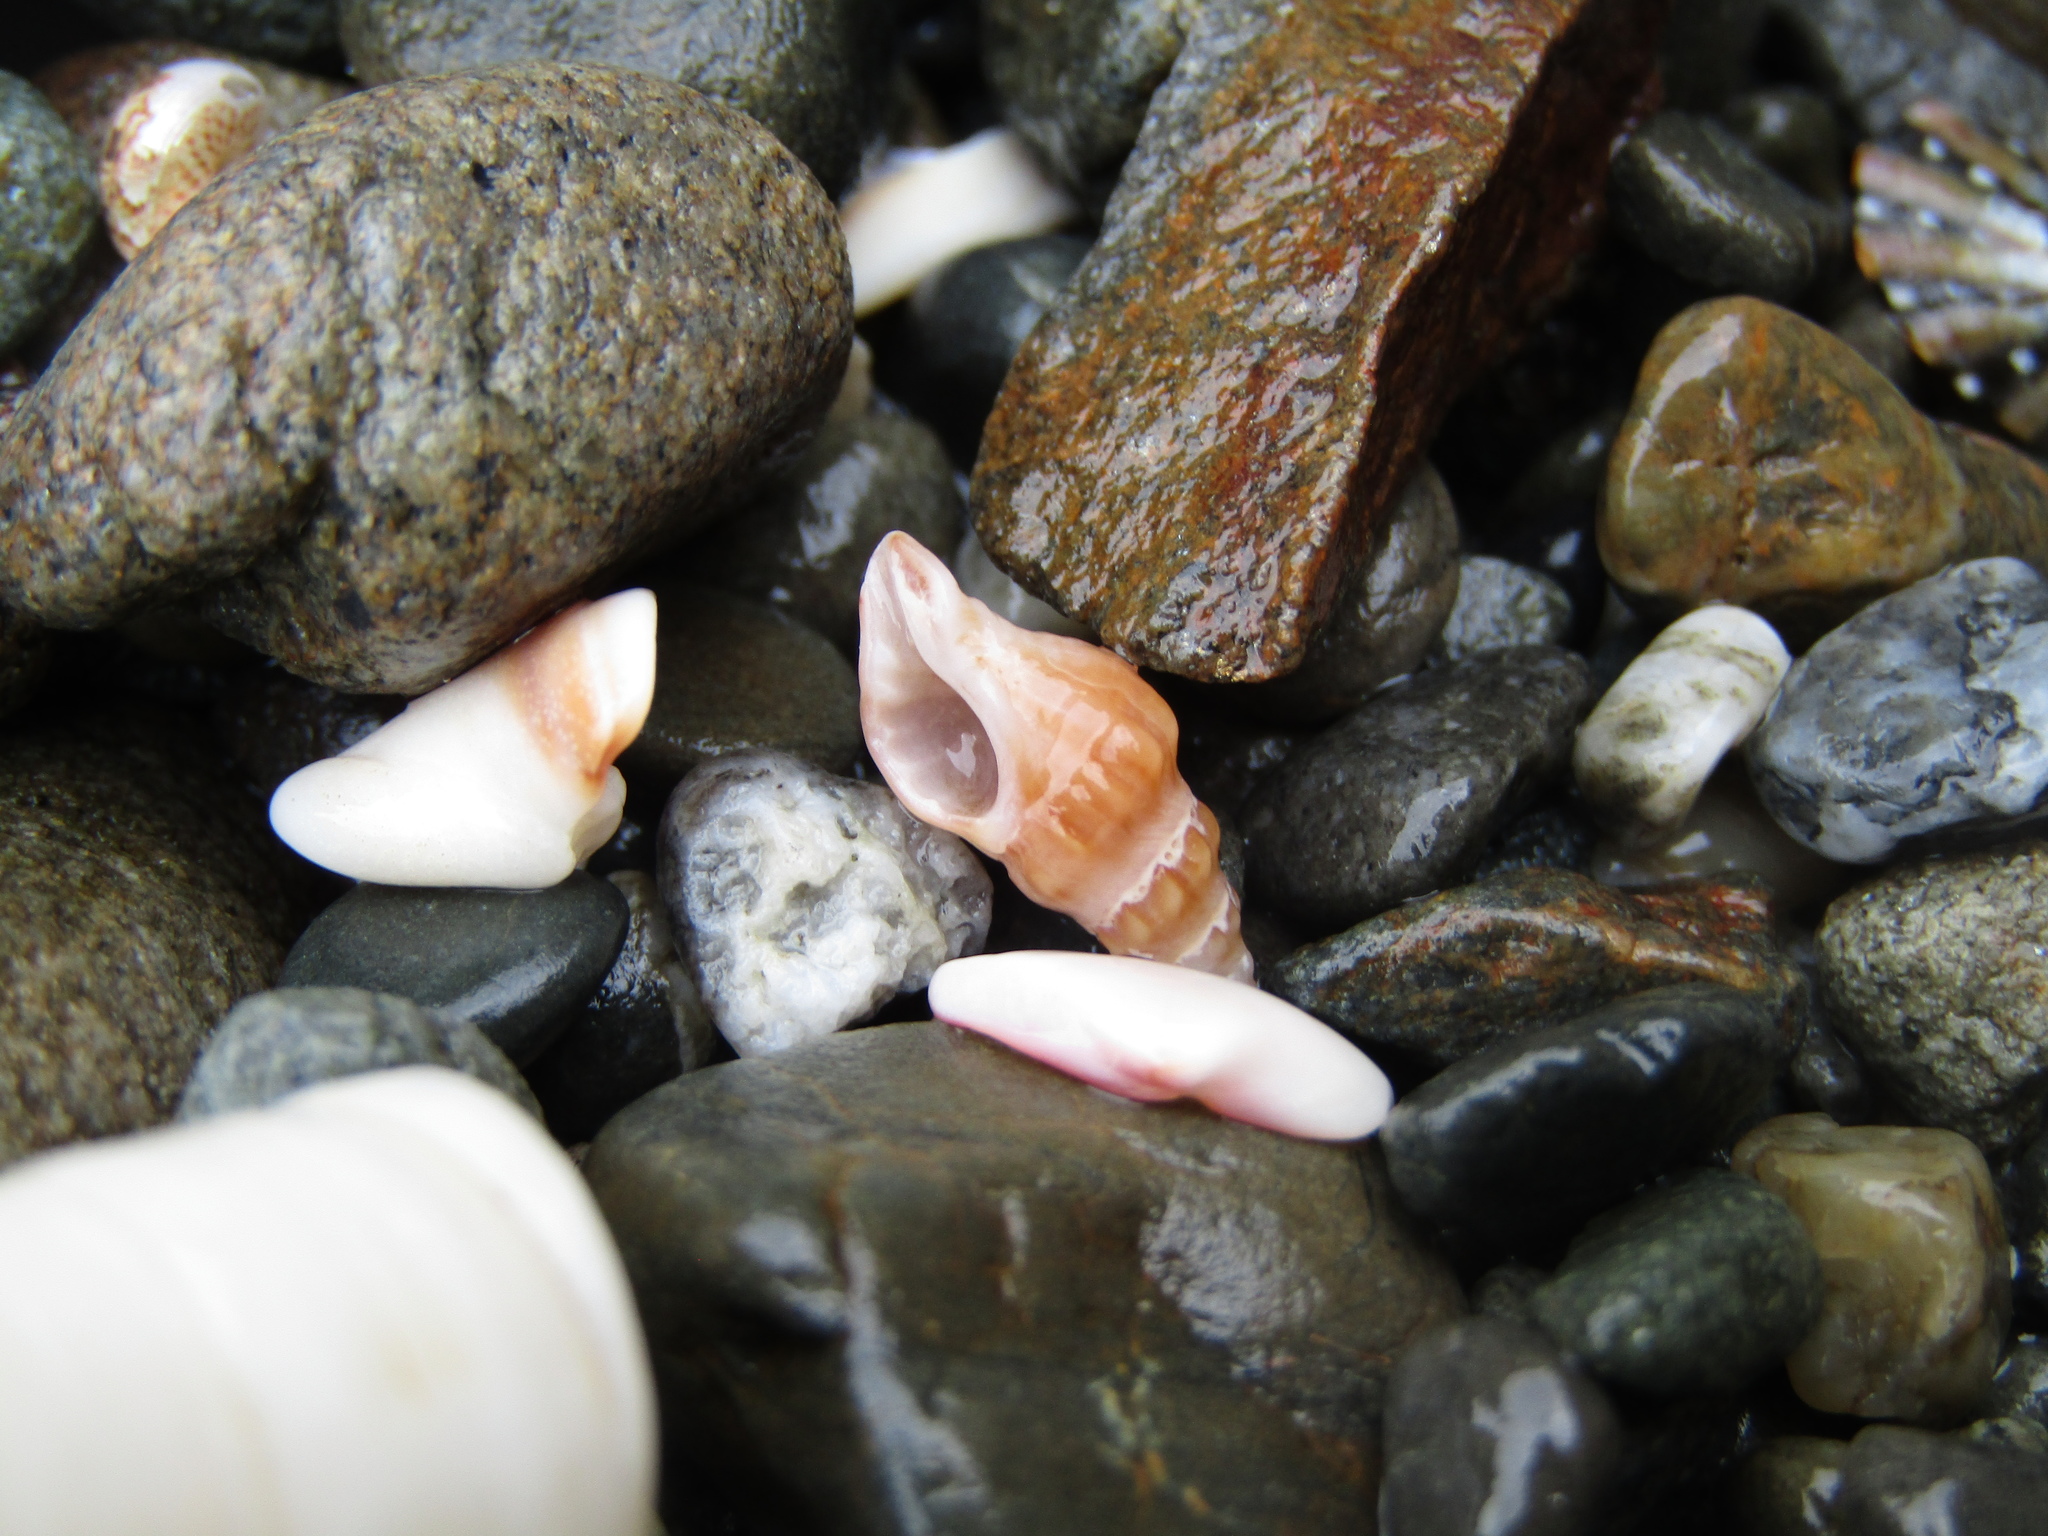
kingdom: Animalia
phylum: Mollusca
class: Gastropoda
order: Neogastropoda
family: Muricidae
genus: Lamellitrophon
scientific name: Lamellitrophon traversi
